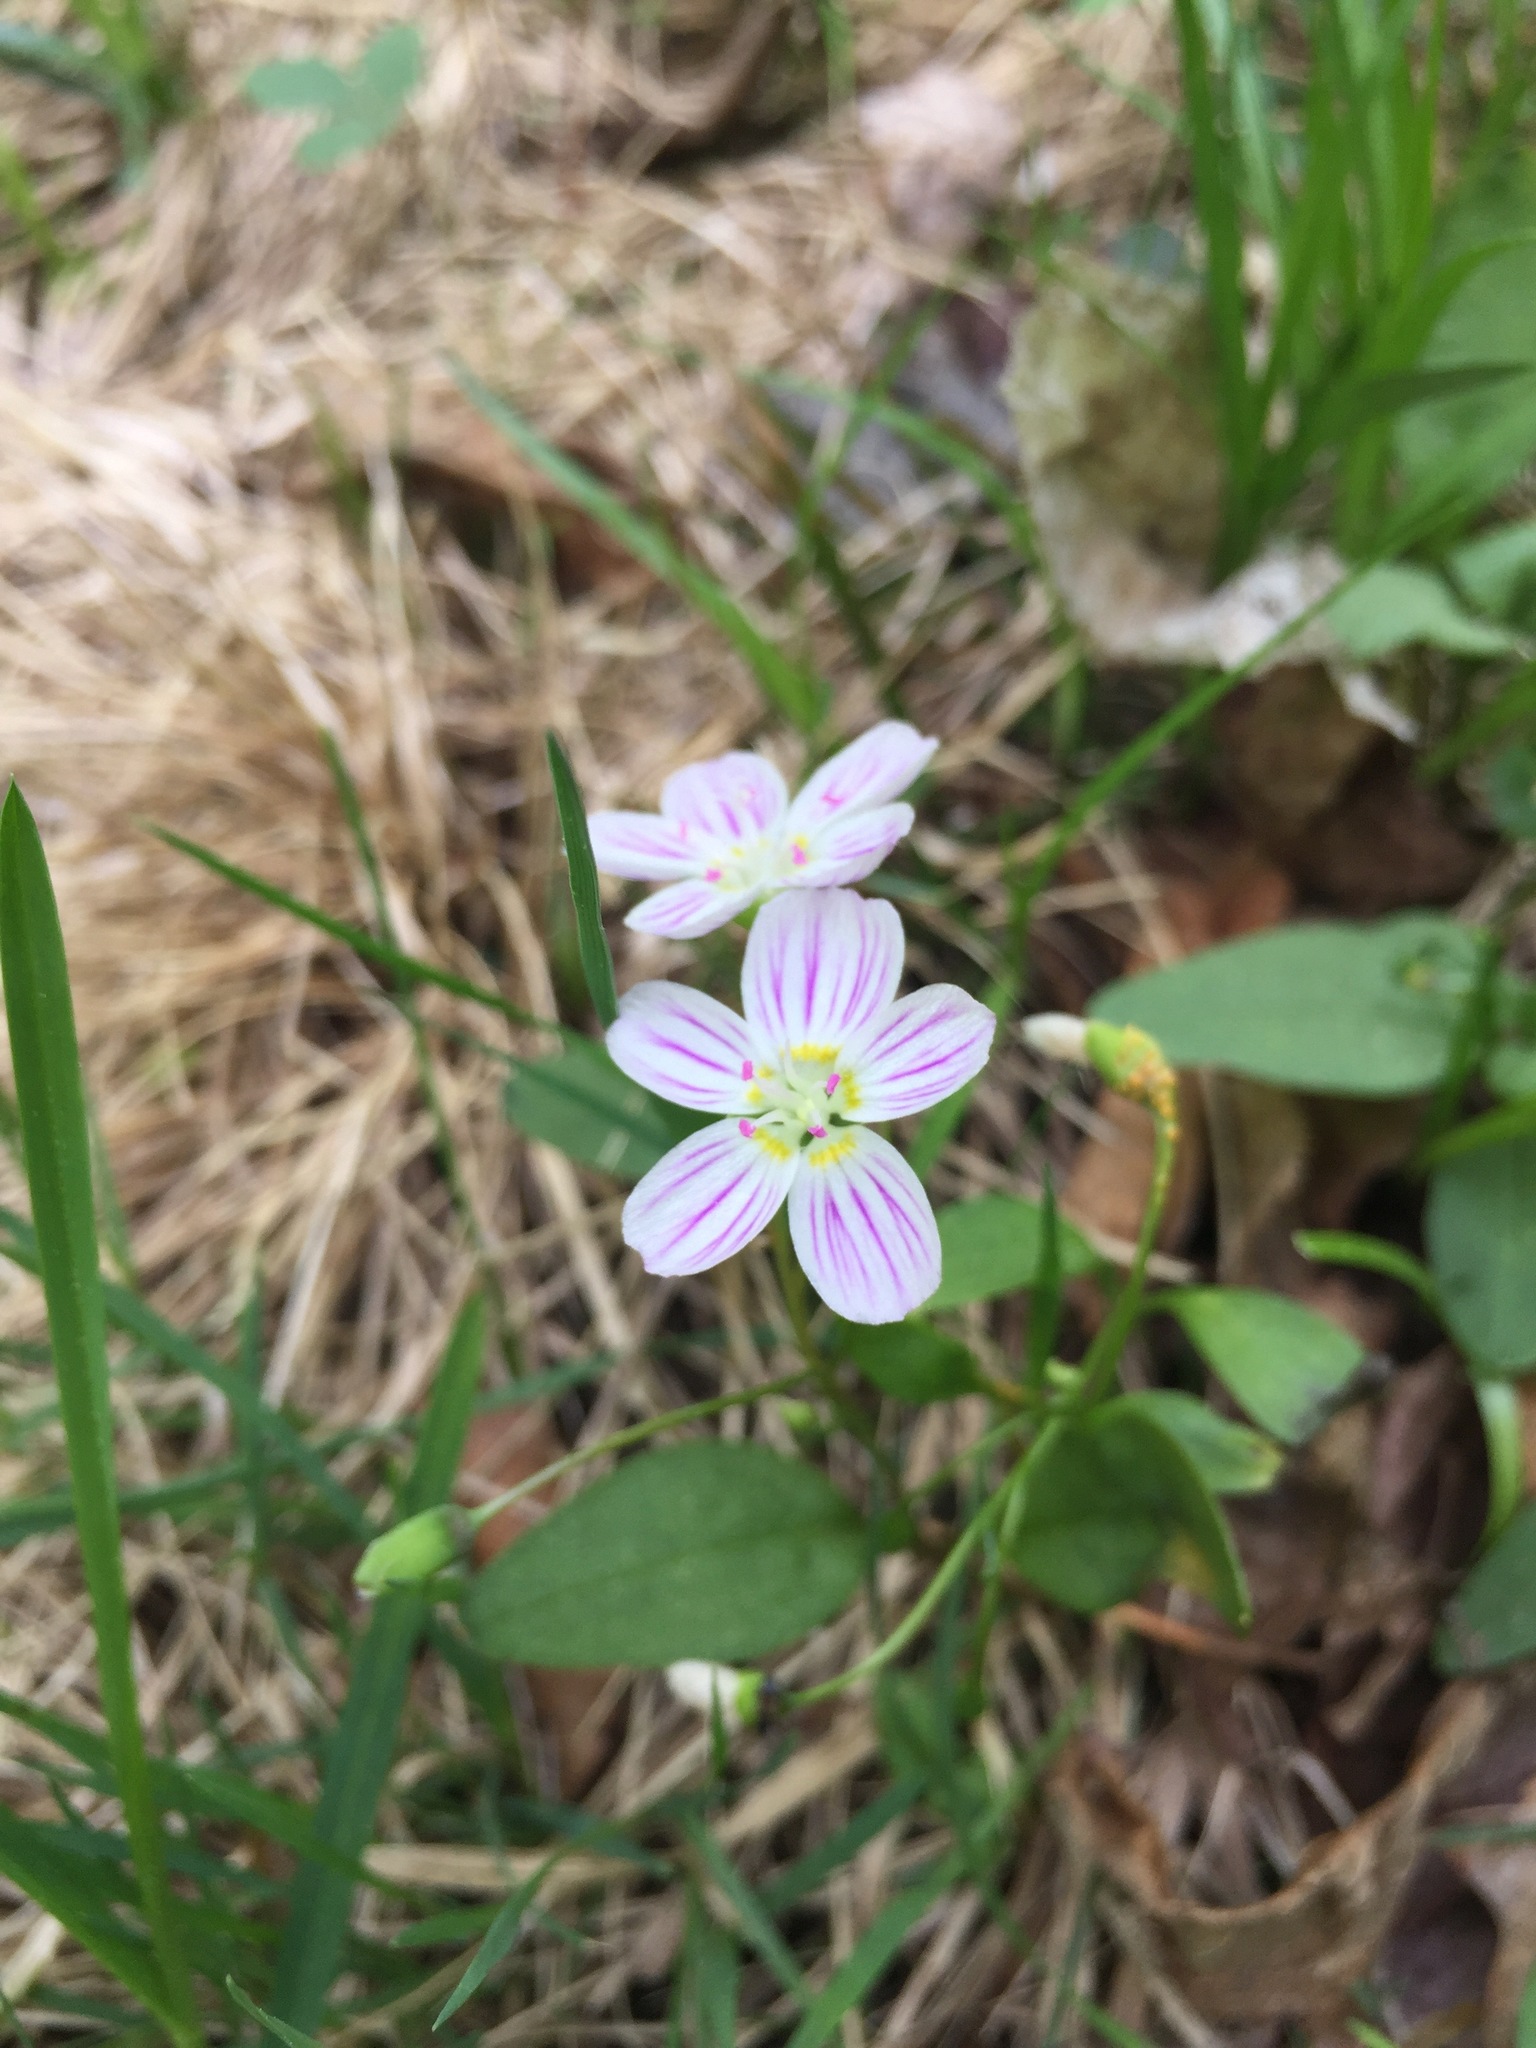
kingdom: Plantae
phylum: Tracheophyta
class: Magnoliopsida
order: Caryophyllales
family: Montiaceae
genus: Claytonia
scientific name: Claytonia caroliniana
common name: Carolina spring beauty
